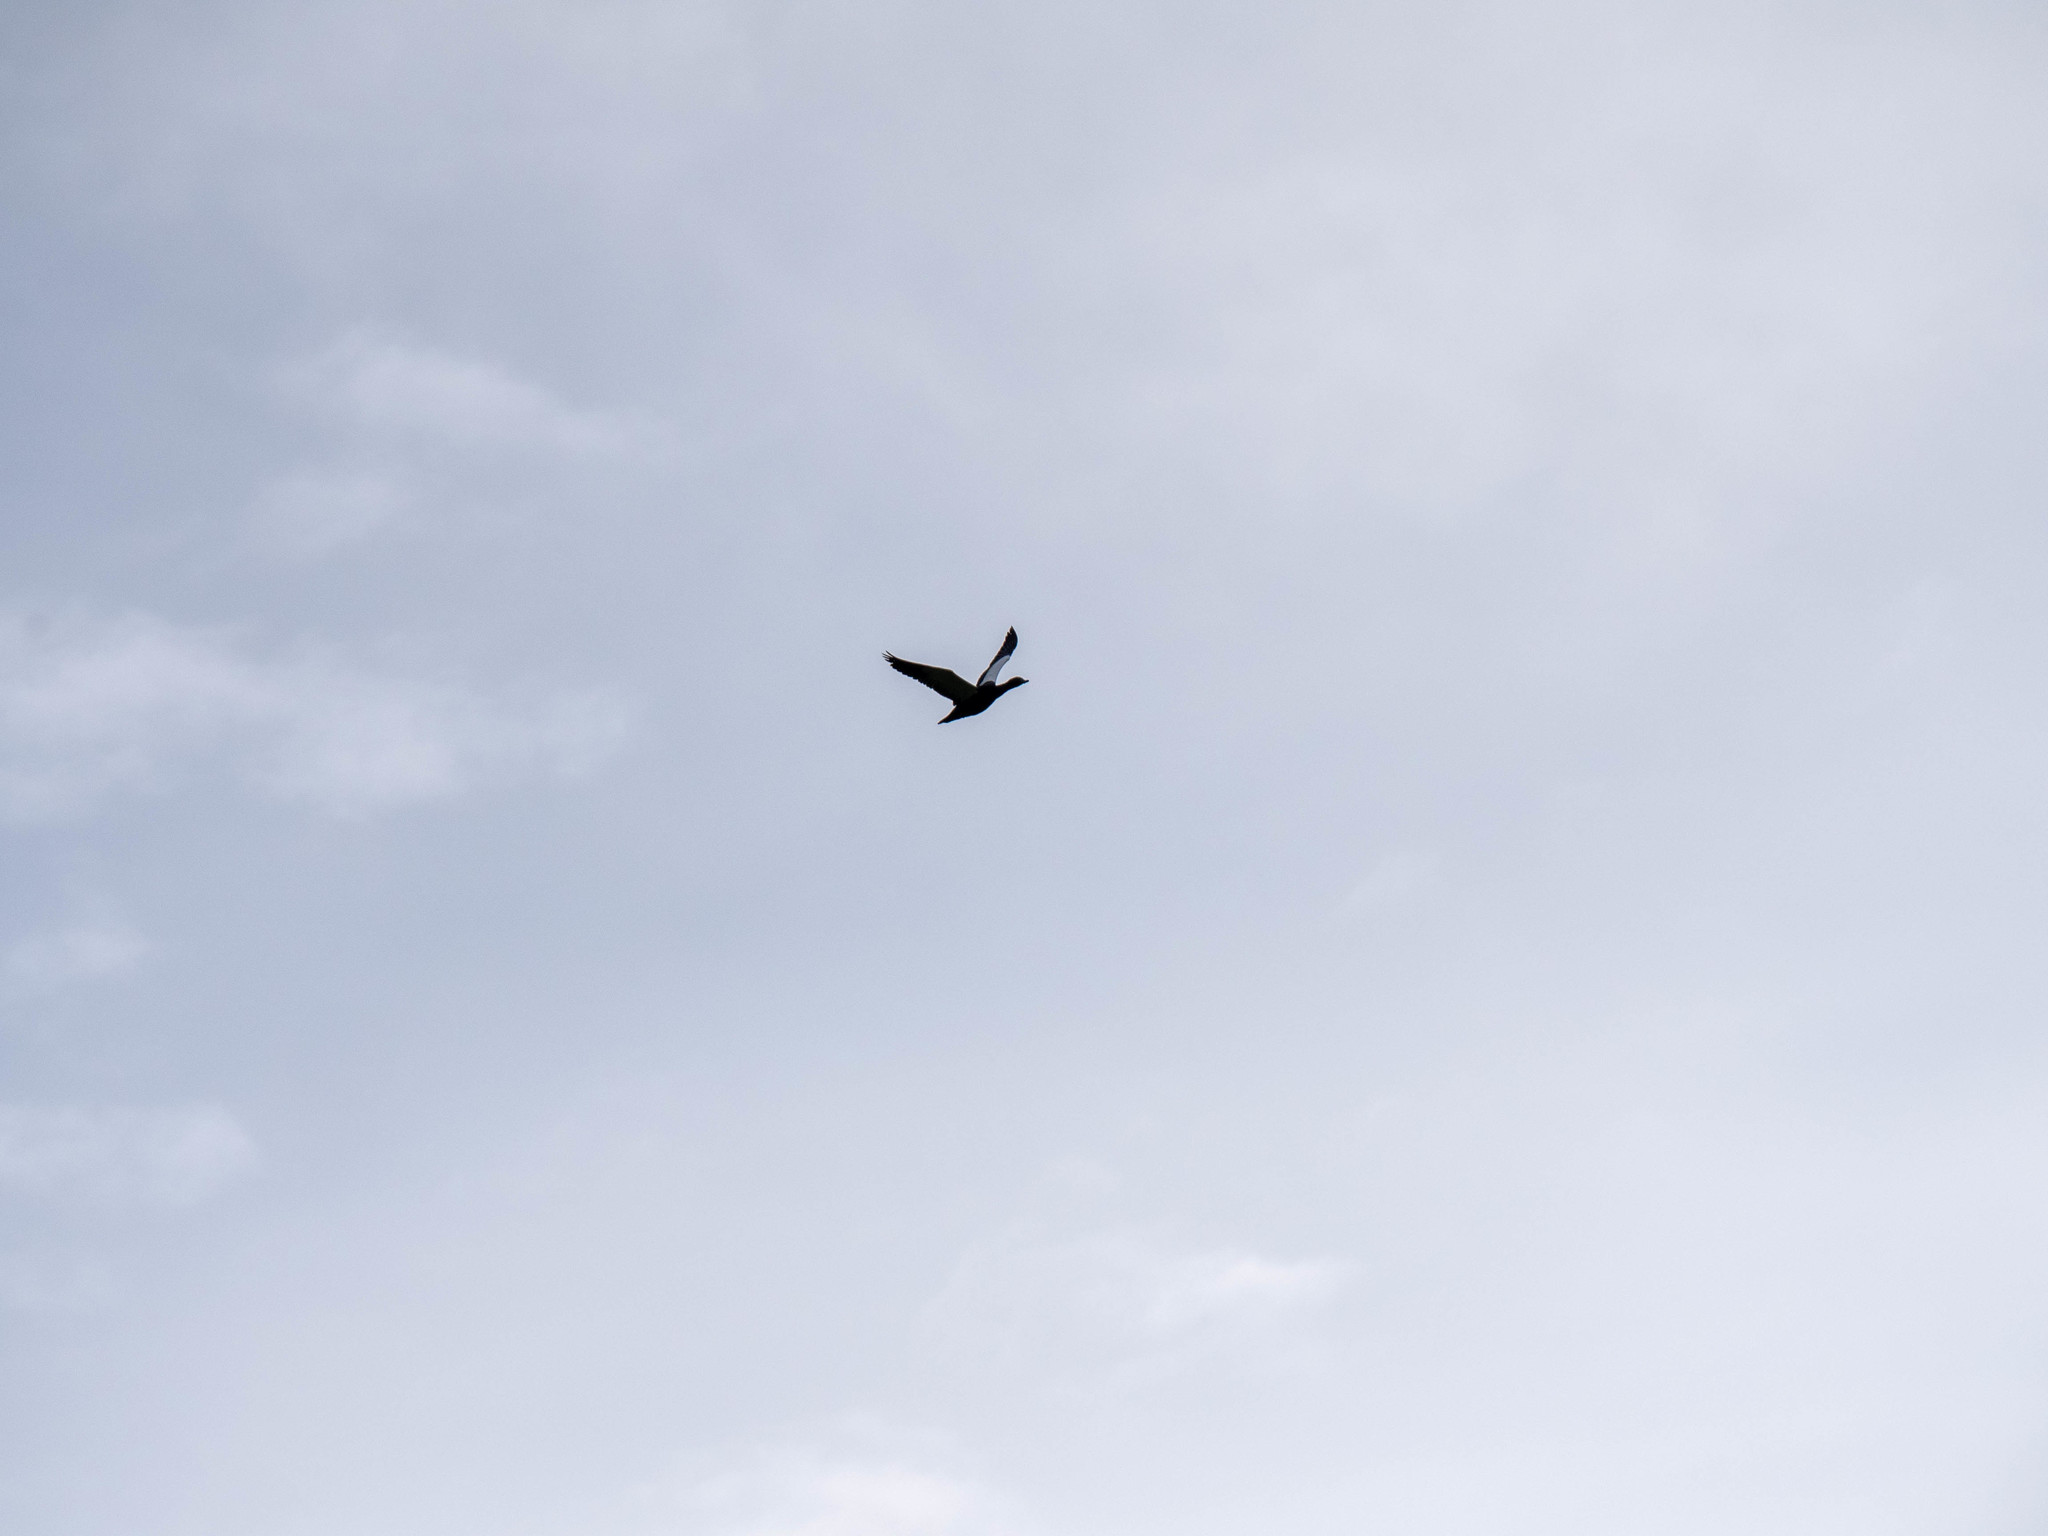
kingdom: Animalia
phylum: Chordata
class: Aves
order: Anseriformes
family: Anatidae
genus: Tadorna
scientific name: Tadorna variegata
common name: Paradise shelduck
